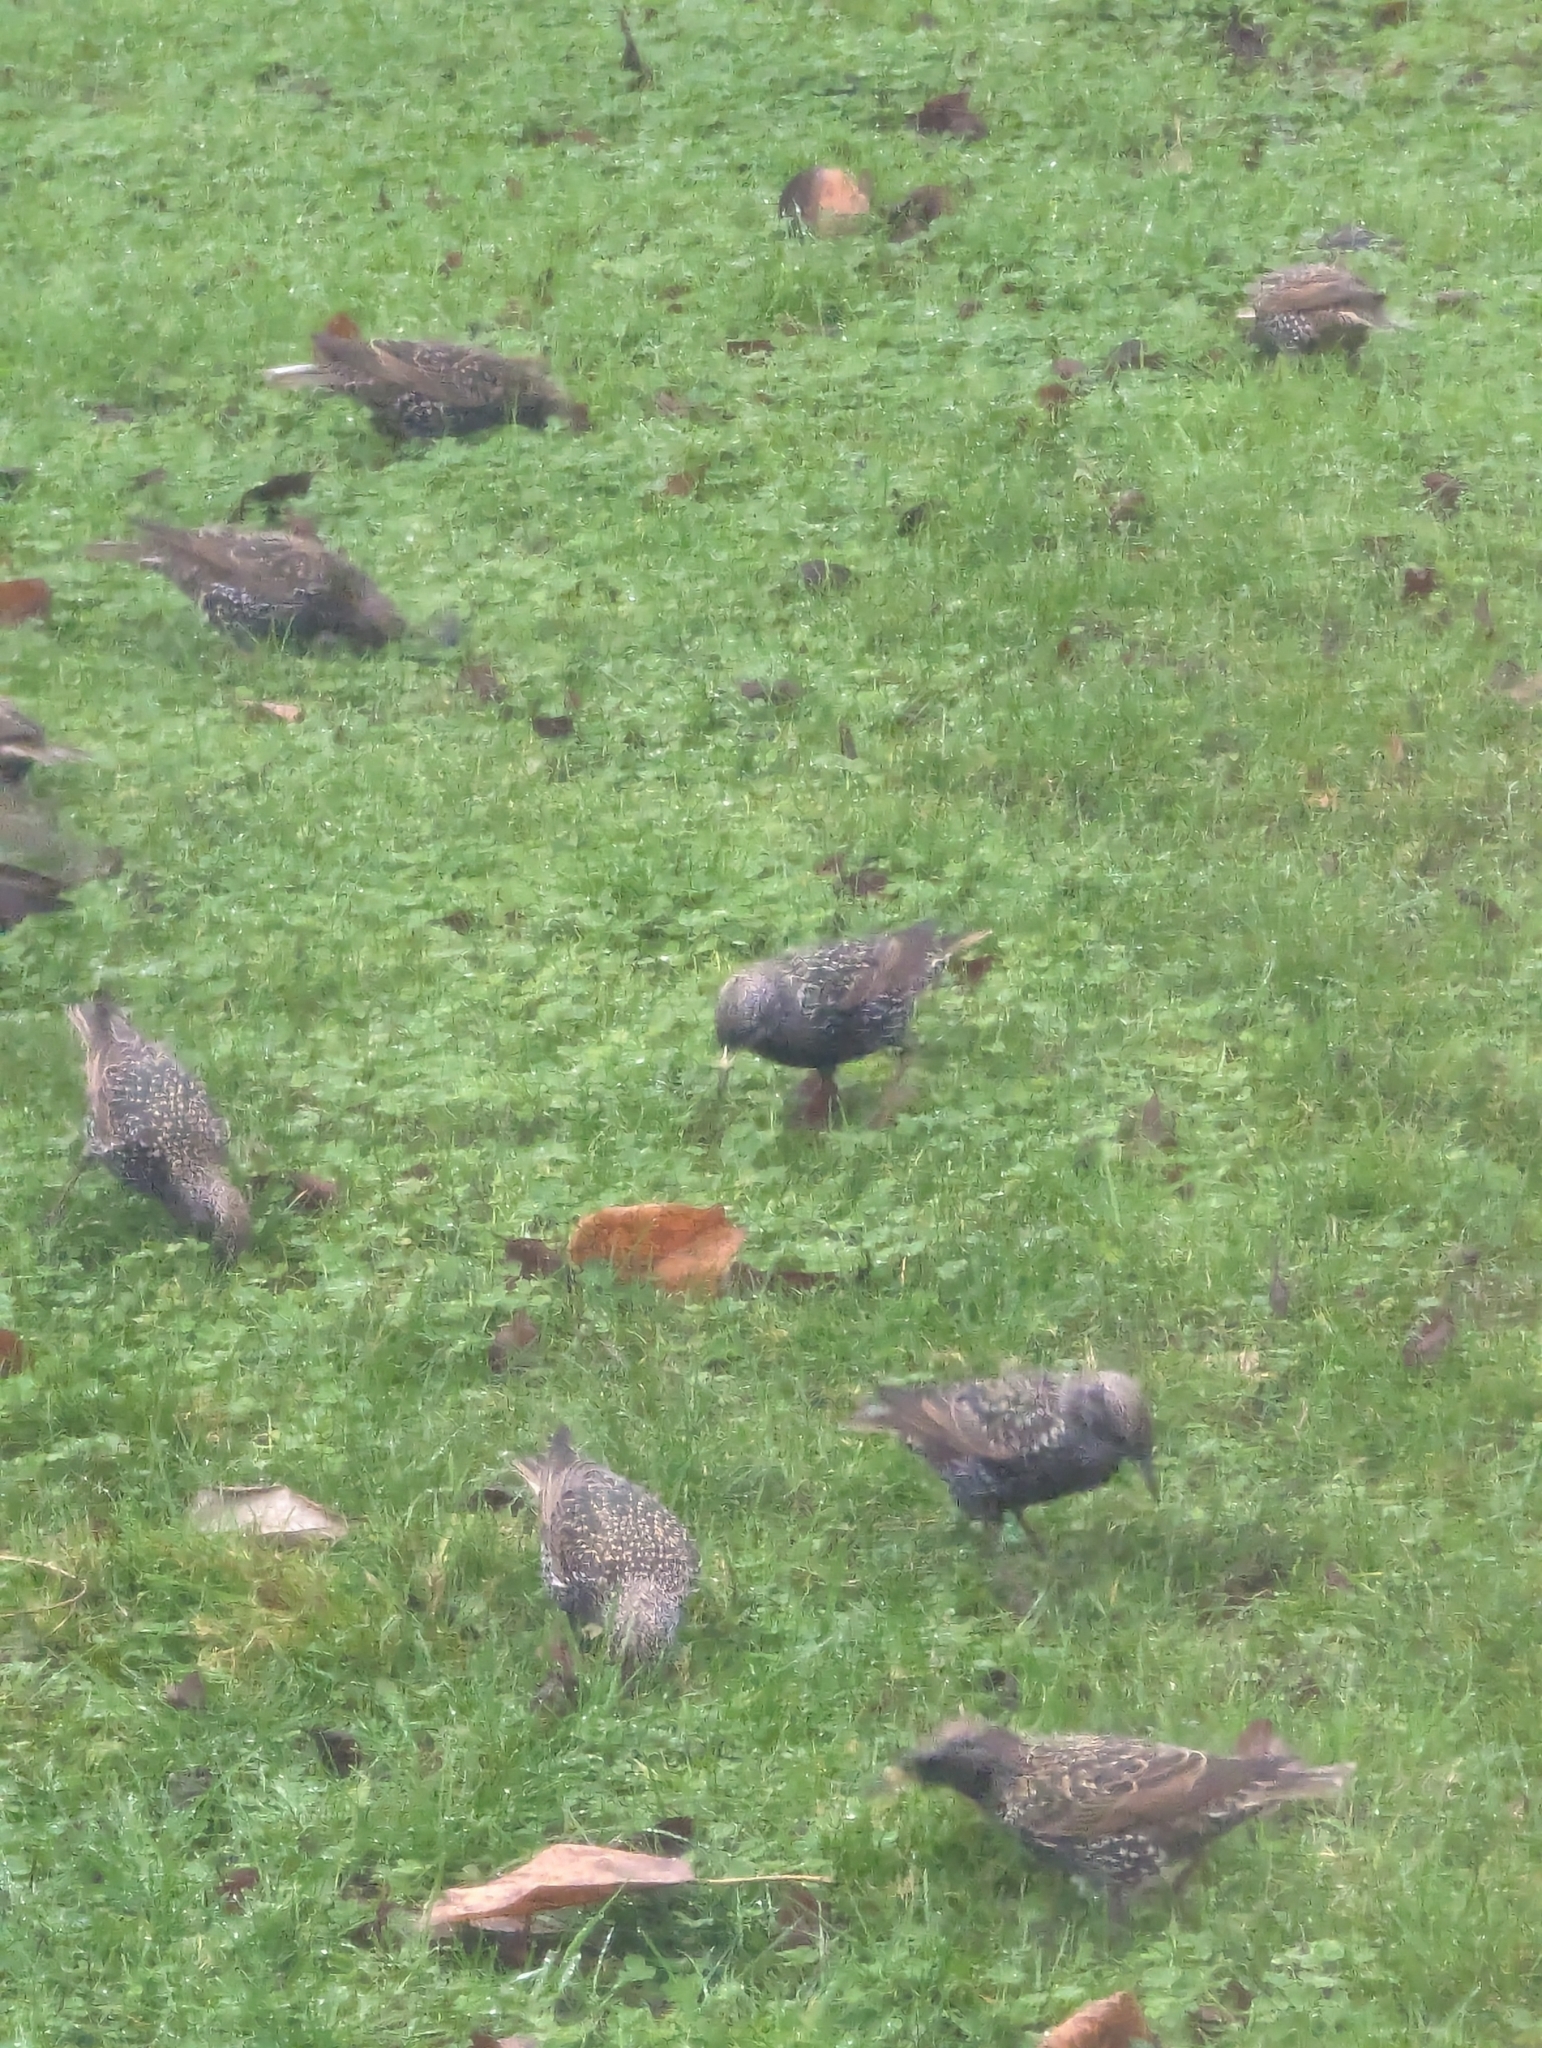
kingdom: Animalia
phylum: Chordata
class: Aves
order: Passeriformes
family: Sturnidae
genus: Sturnus
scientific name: Sturnus vulgaris
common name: Common starling
